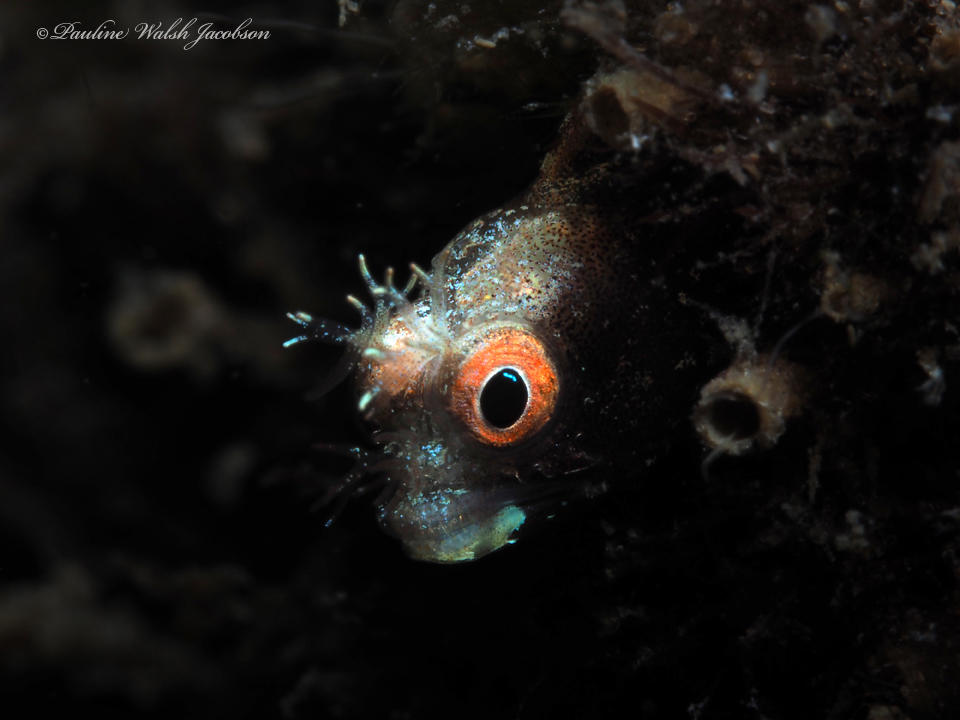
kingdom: Animalia
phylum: Chordata
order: Perciformes
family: Chaenopsidae
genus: Acanthemblemaria
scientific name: Acanthemblemaria aspera
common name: Roughhead blenny
